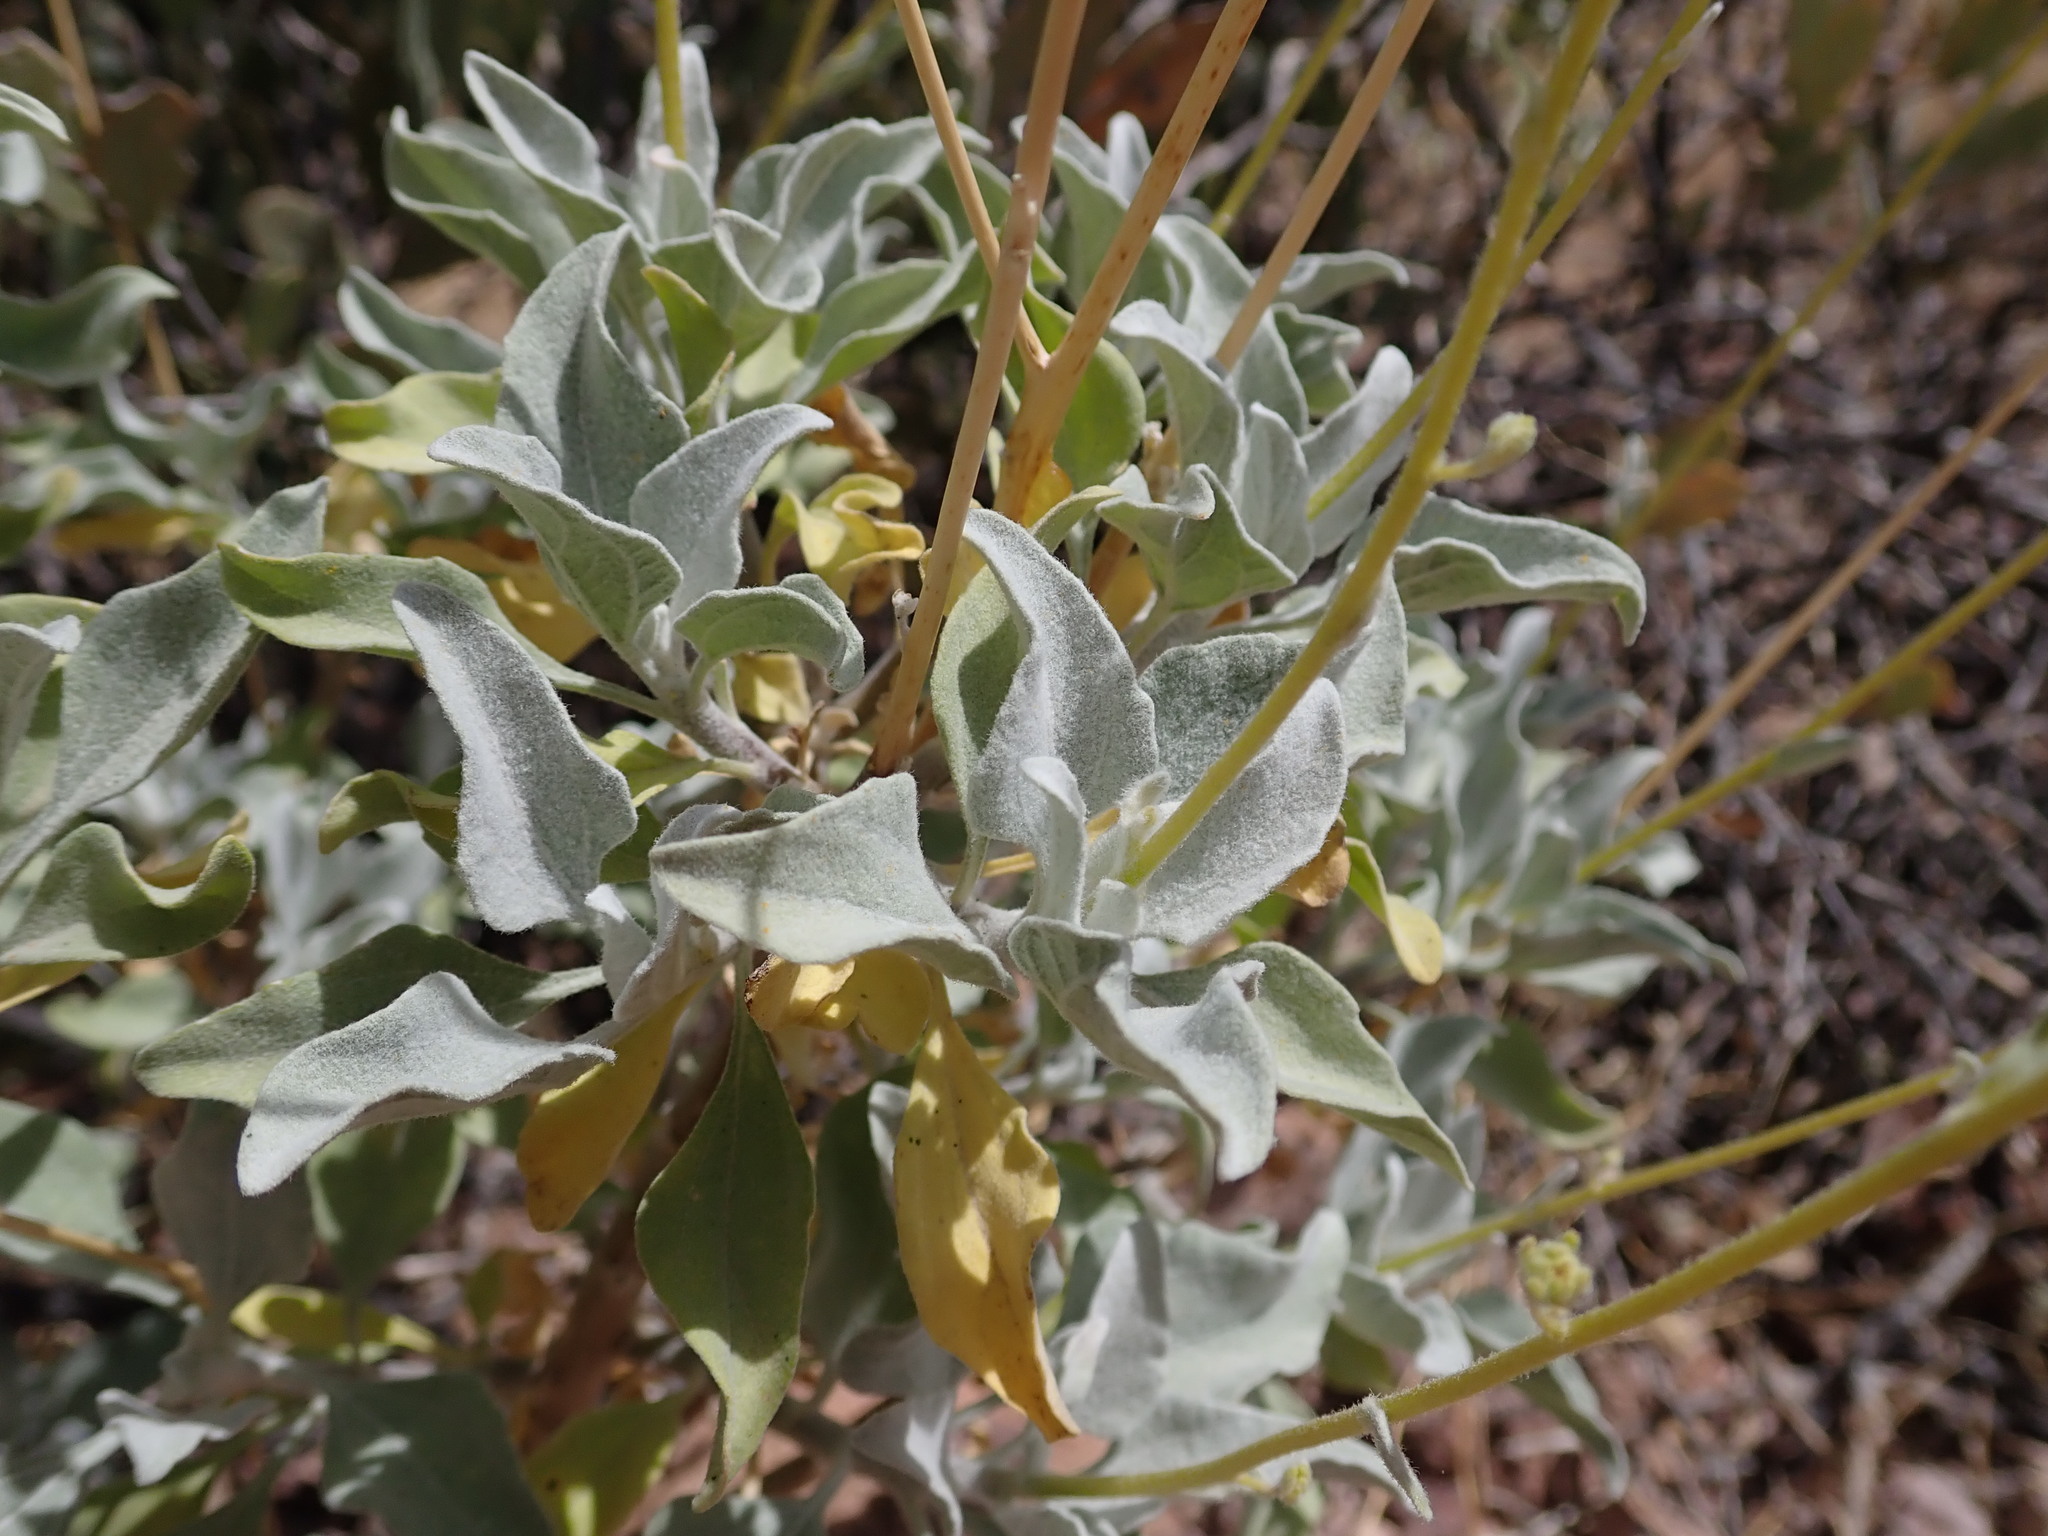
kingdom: Plantae
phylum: Tracheophyta
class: Magnoliopsida
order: Asterales
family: Asteraceae
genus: Encelia
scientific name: Encelia farinosa
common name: Brittlebush
